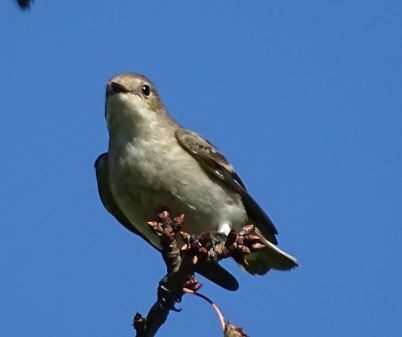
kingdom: Animalia
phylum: Chordata
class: Aves
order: Passeriformes
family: Muscicapidae
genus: Ficedula
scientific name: Ficedula hypoleuca
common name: European pied flycatcher
